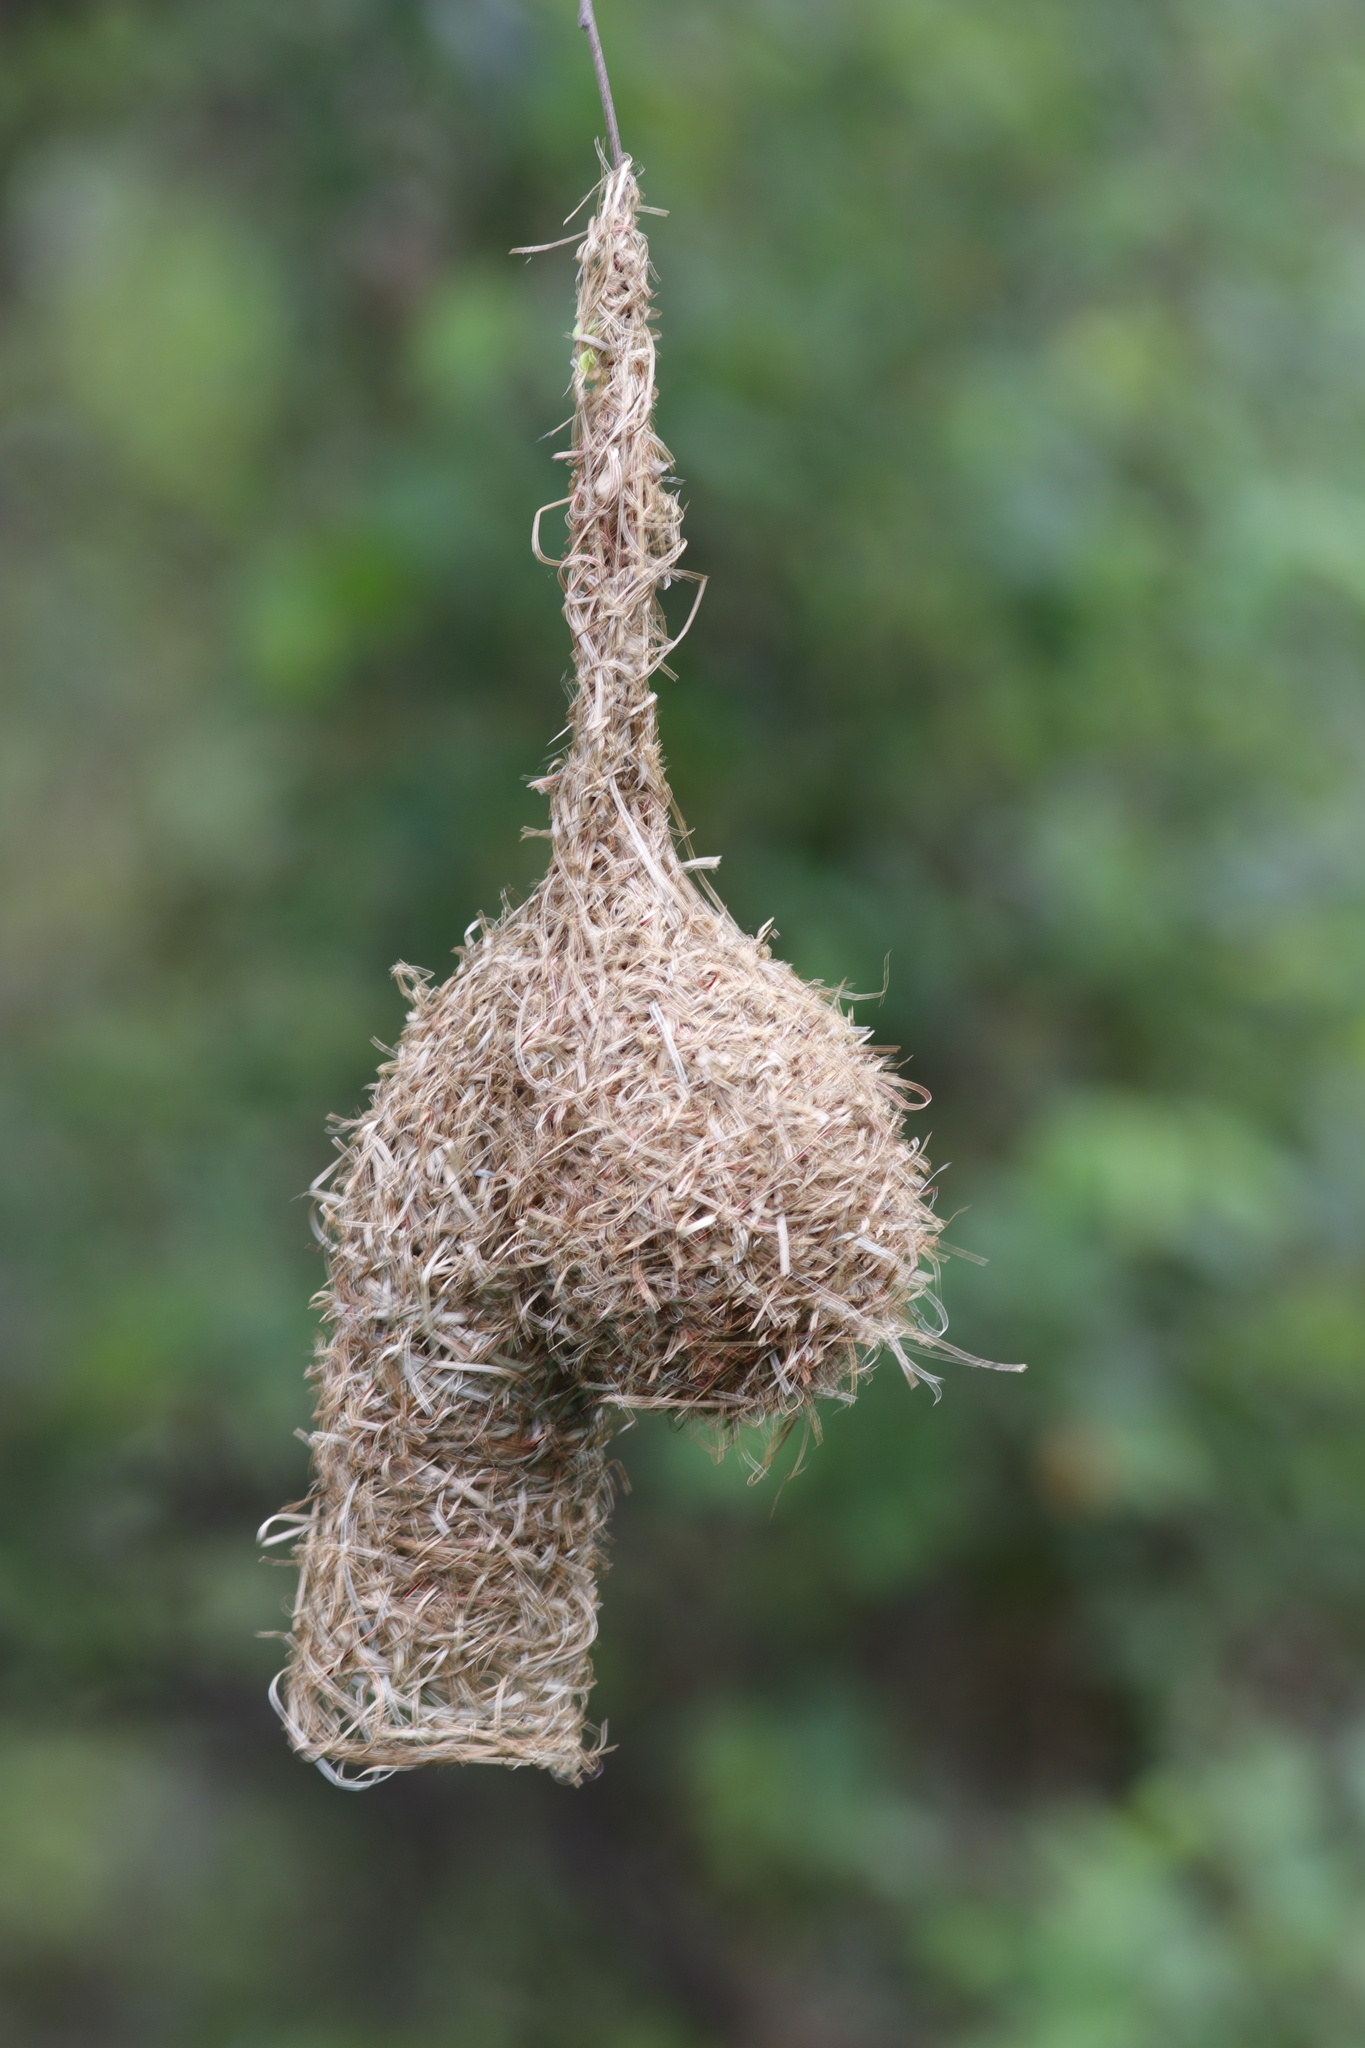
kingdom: Animalia
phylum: Chordata
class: Aves
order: Passeriformes
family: Ploceidae
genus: Ploceus
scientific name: Ploceus ocularis
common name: Spectacled weaver
